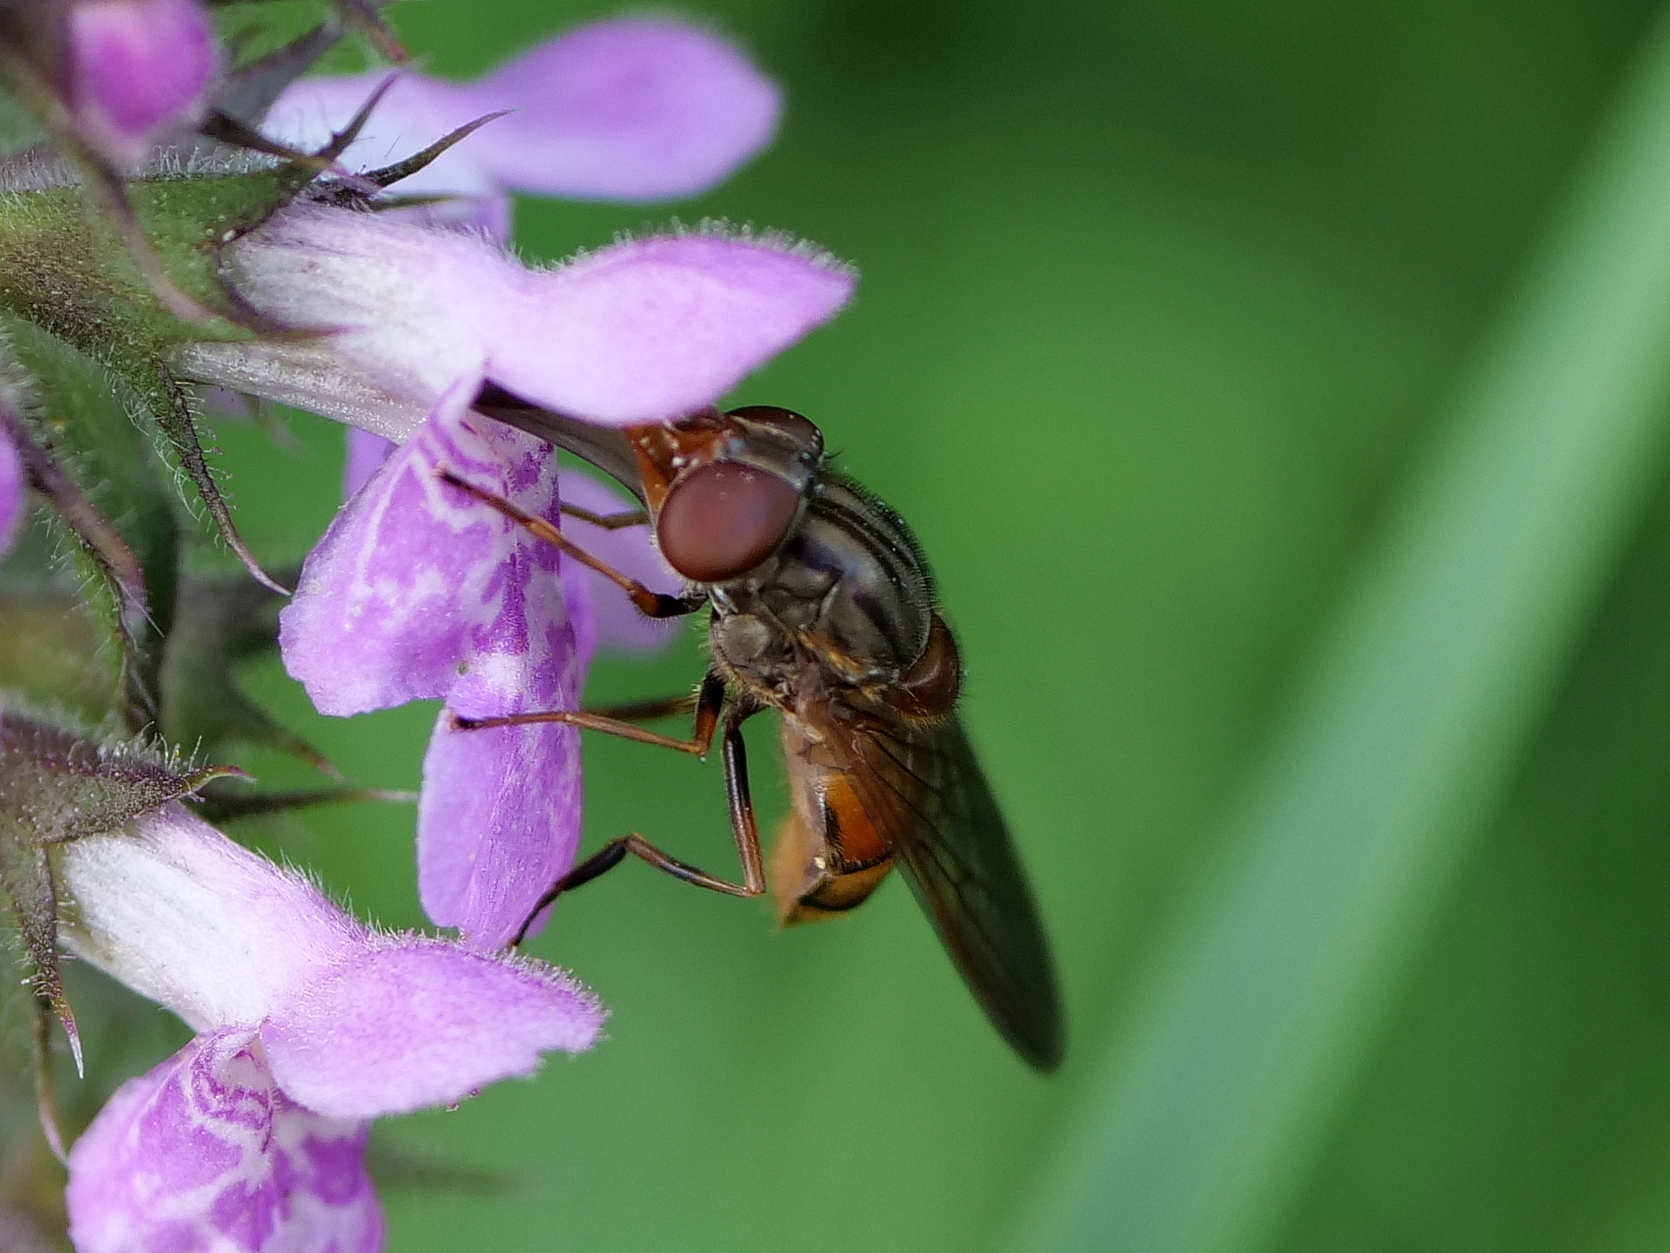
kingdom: Animalia
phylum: Arthropoda
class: Insecta
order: Diptera
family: Syrphidae
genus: Rhingia
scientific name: Rhingia campestris
